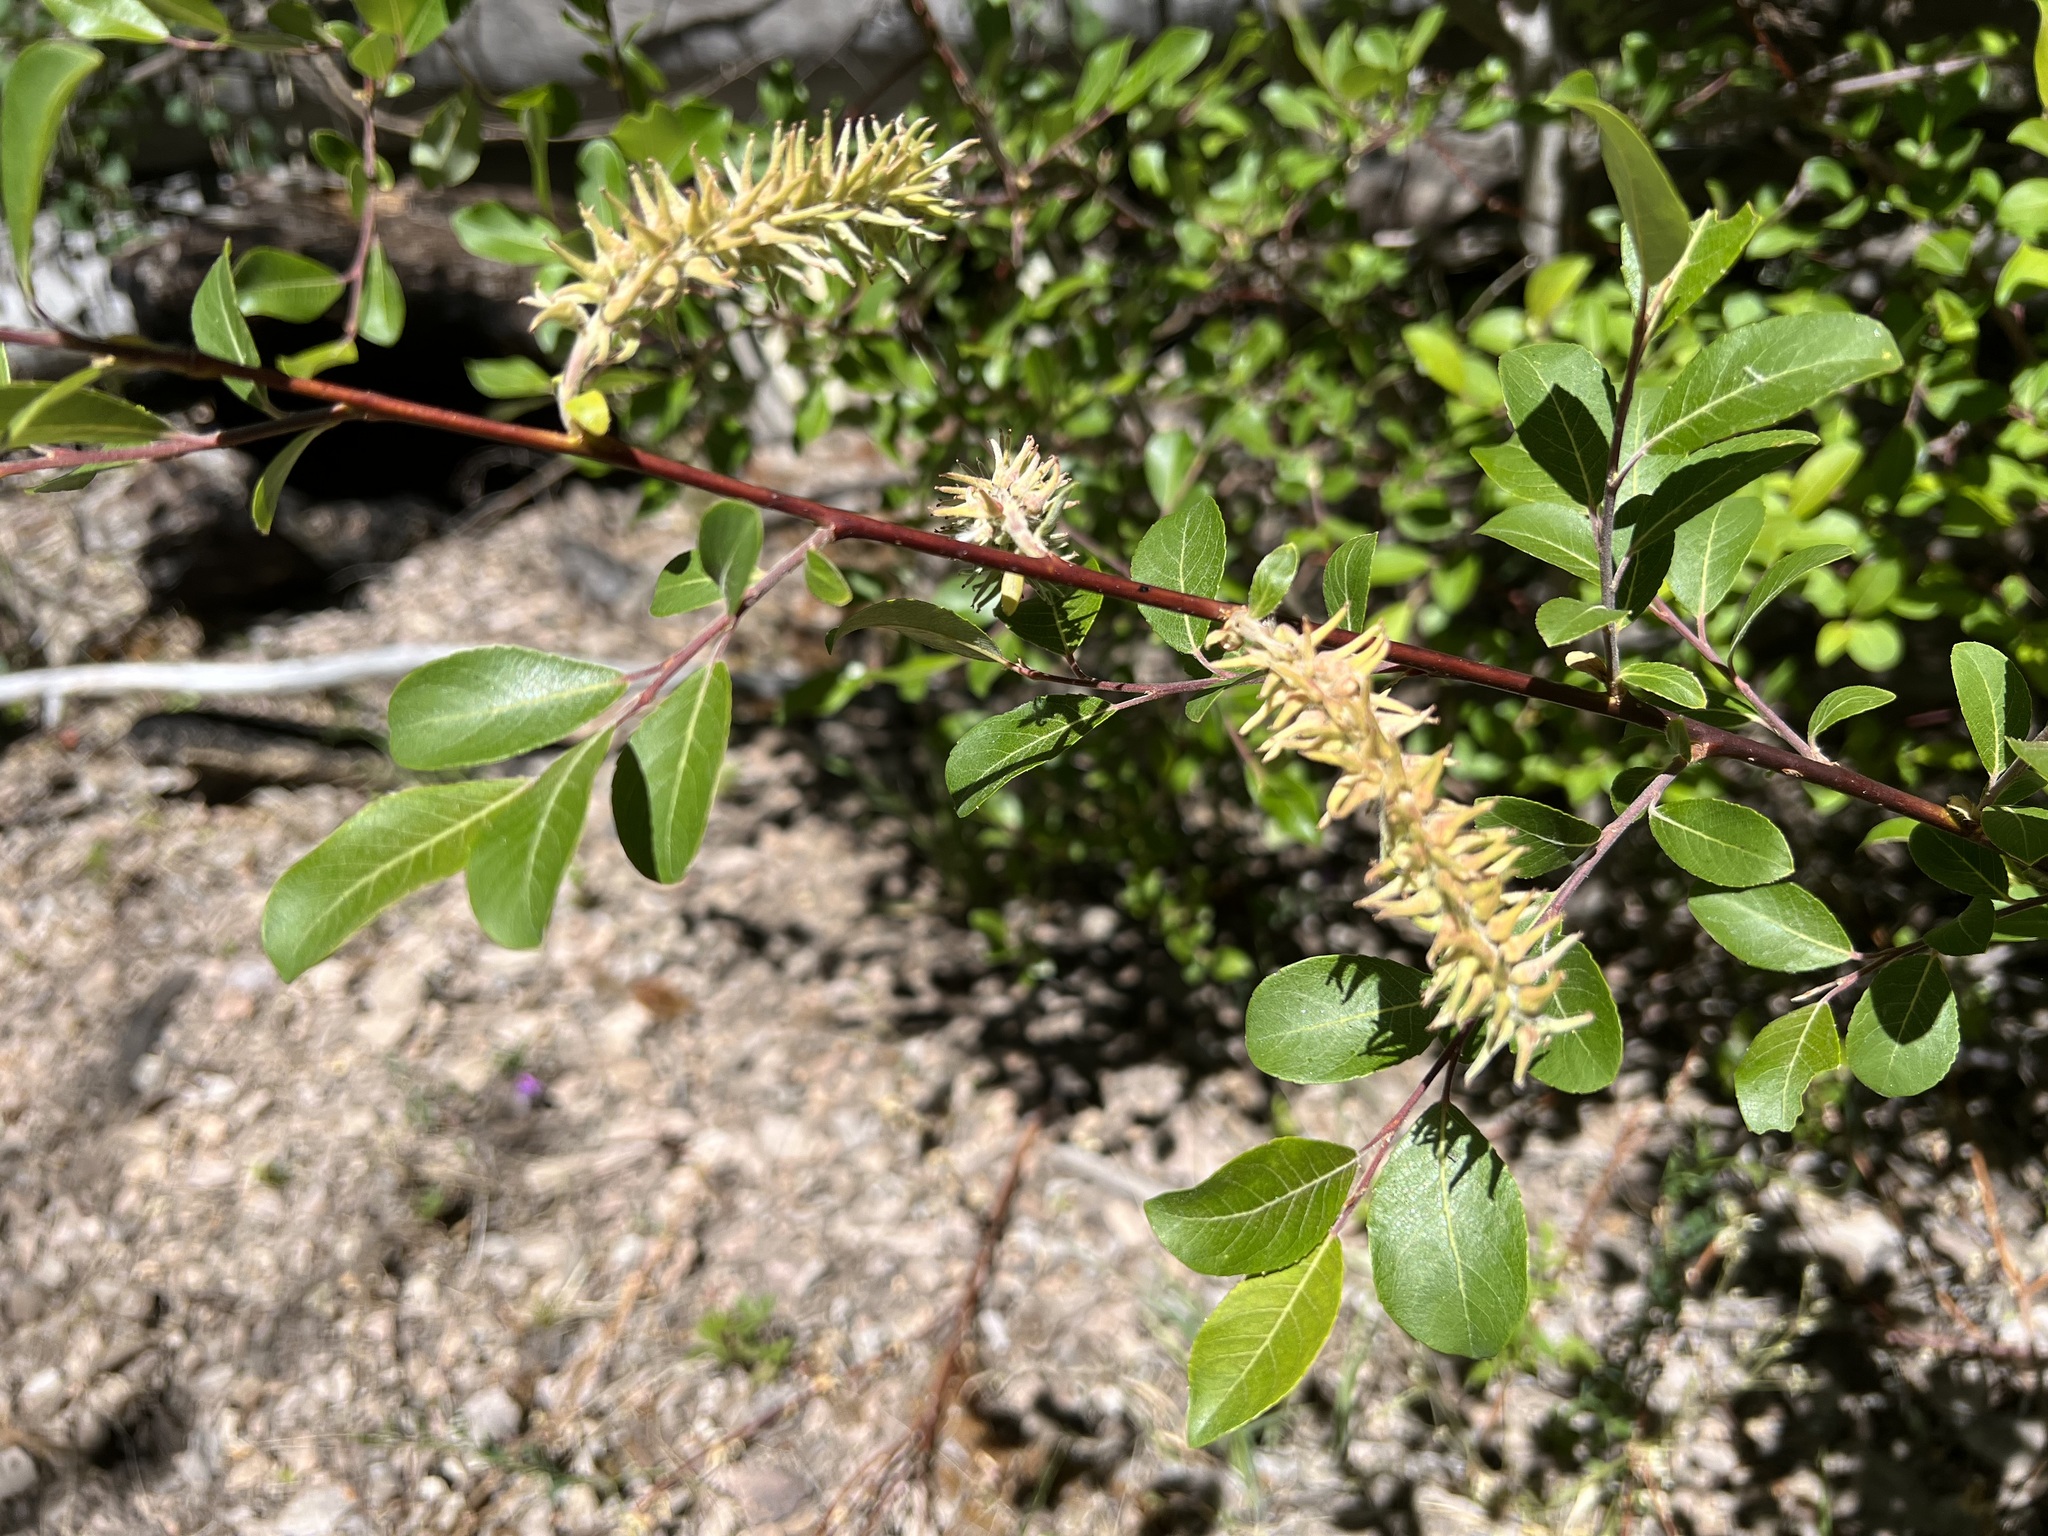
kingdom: Plantae
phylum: Tracheophyta
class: Magnoliopsida
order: Malpighiales
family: Salicaceae
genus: Salix
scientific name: Salix scouleriana
